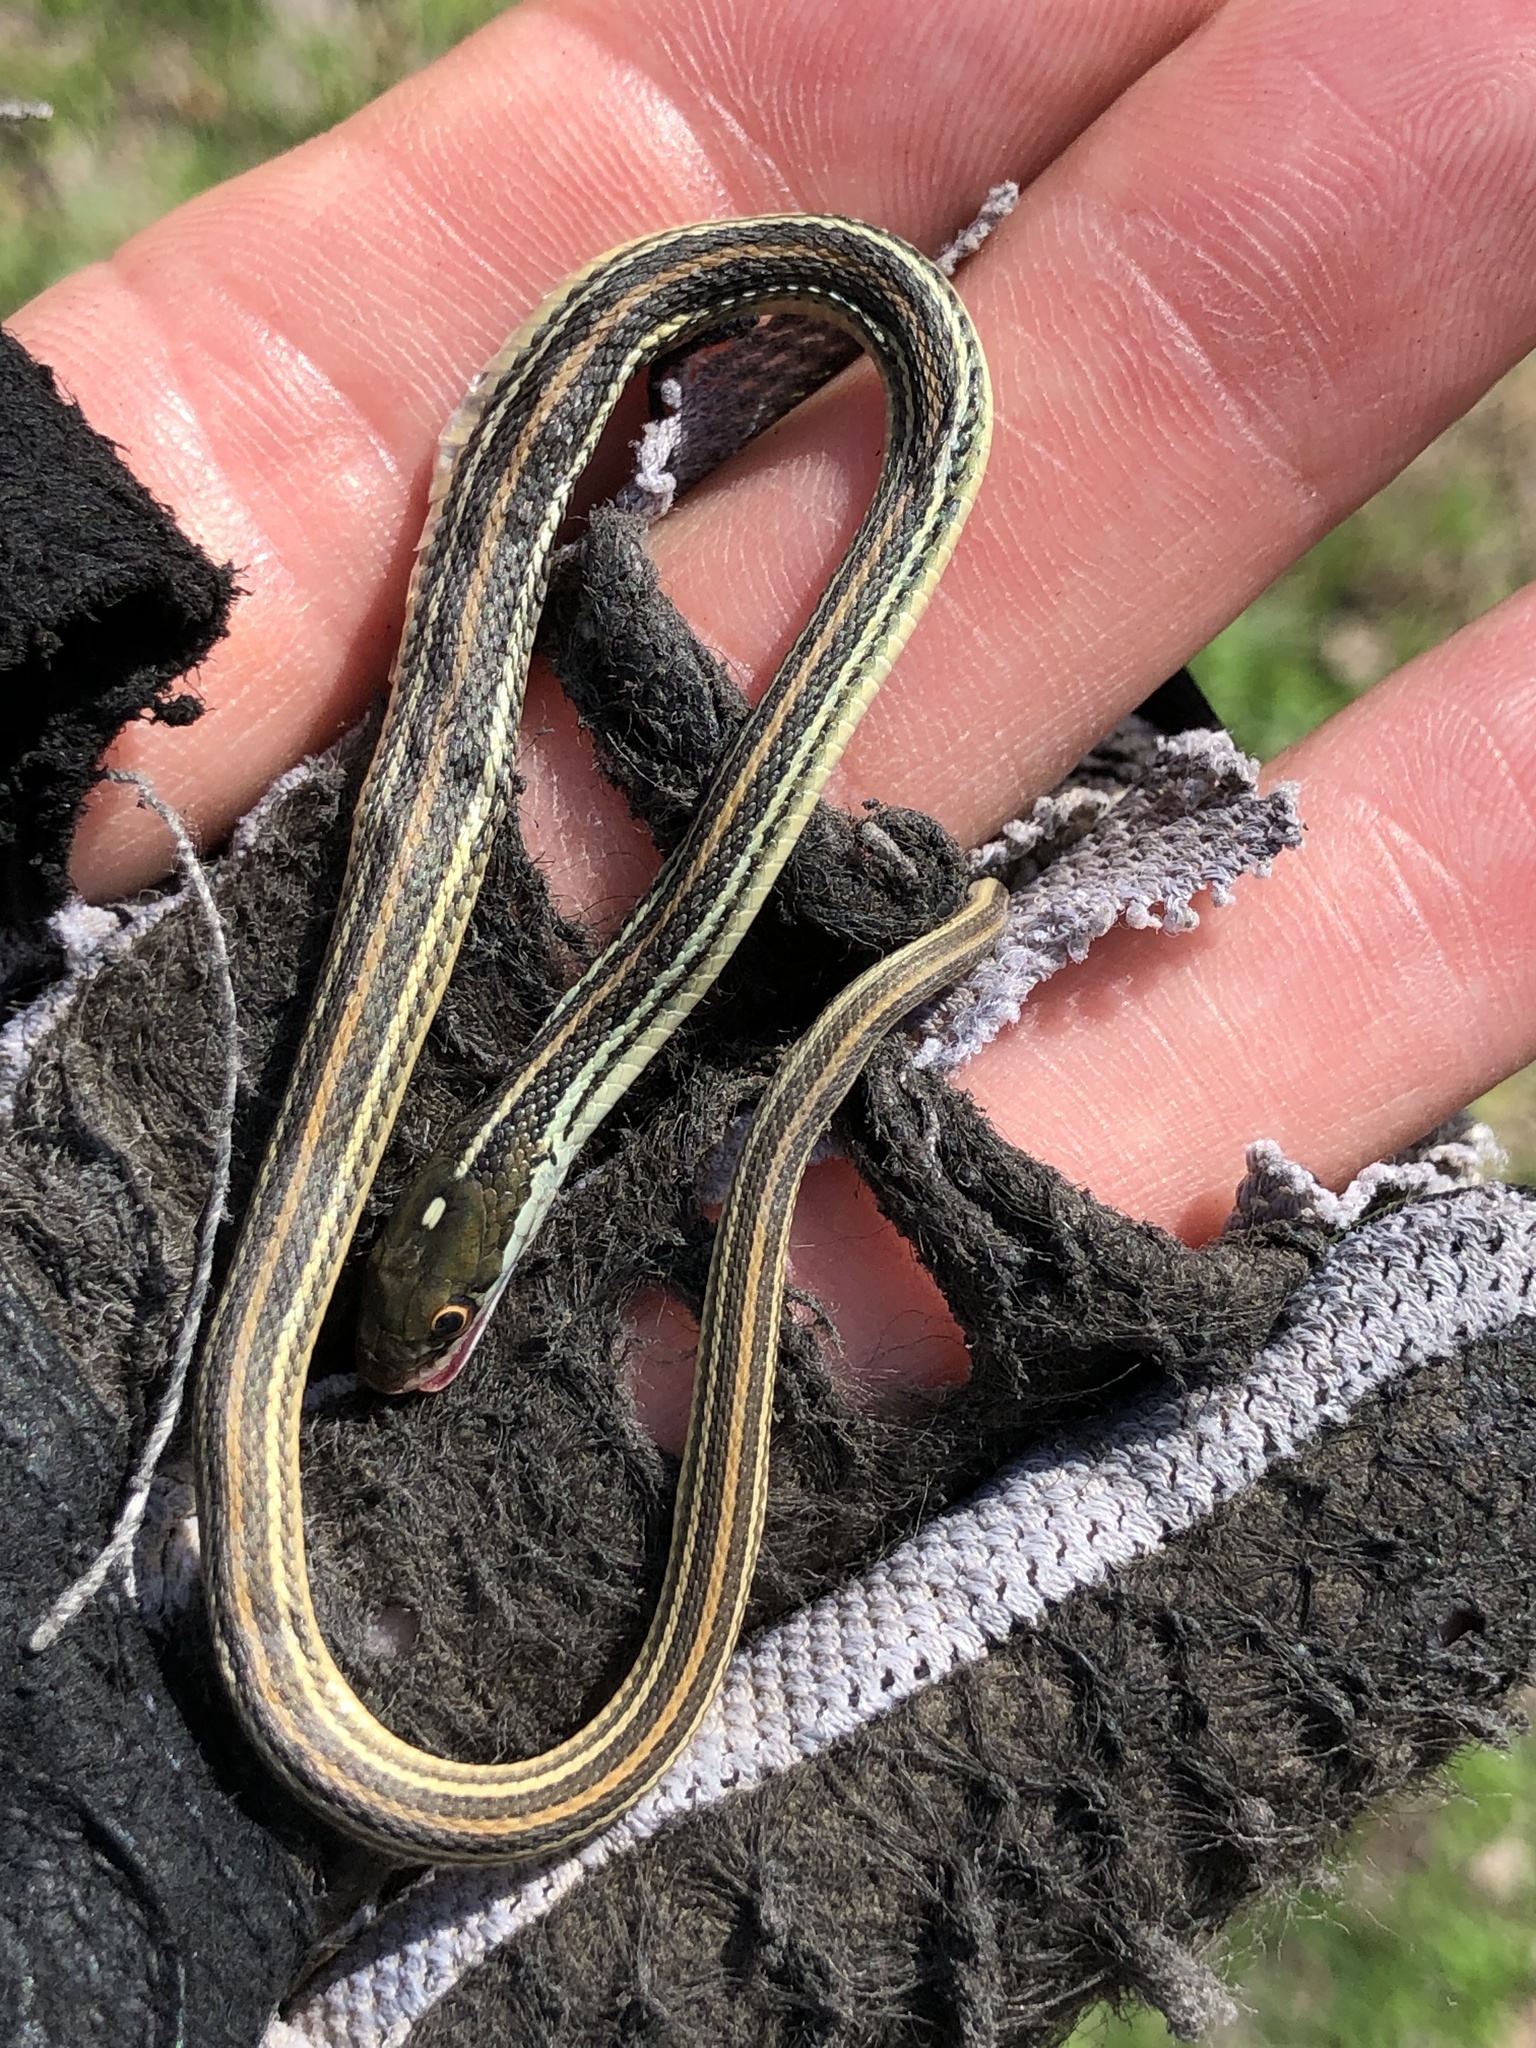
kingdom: Animalia
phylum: Chordata
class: Squamata
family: Colubridae
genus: Thamnophis
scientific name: Thamnophis proximus
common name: Western ribbon snake
